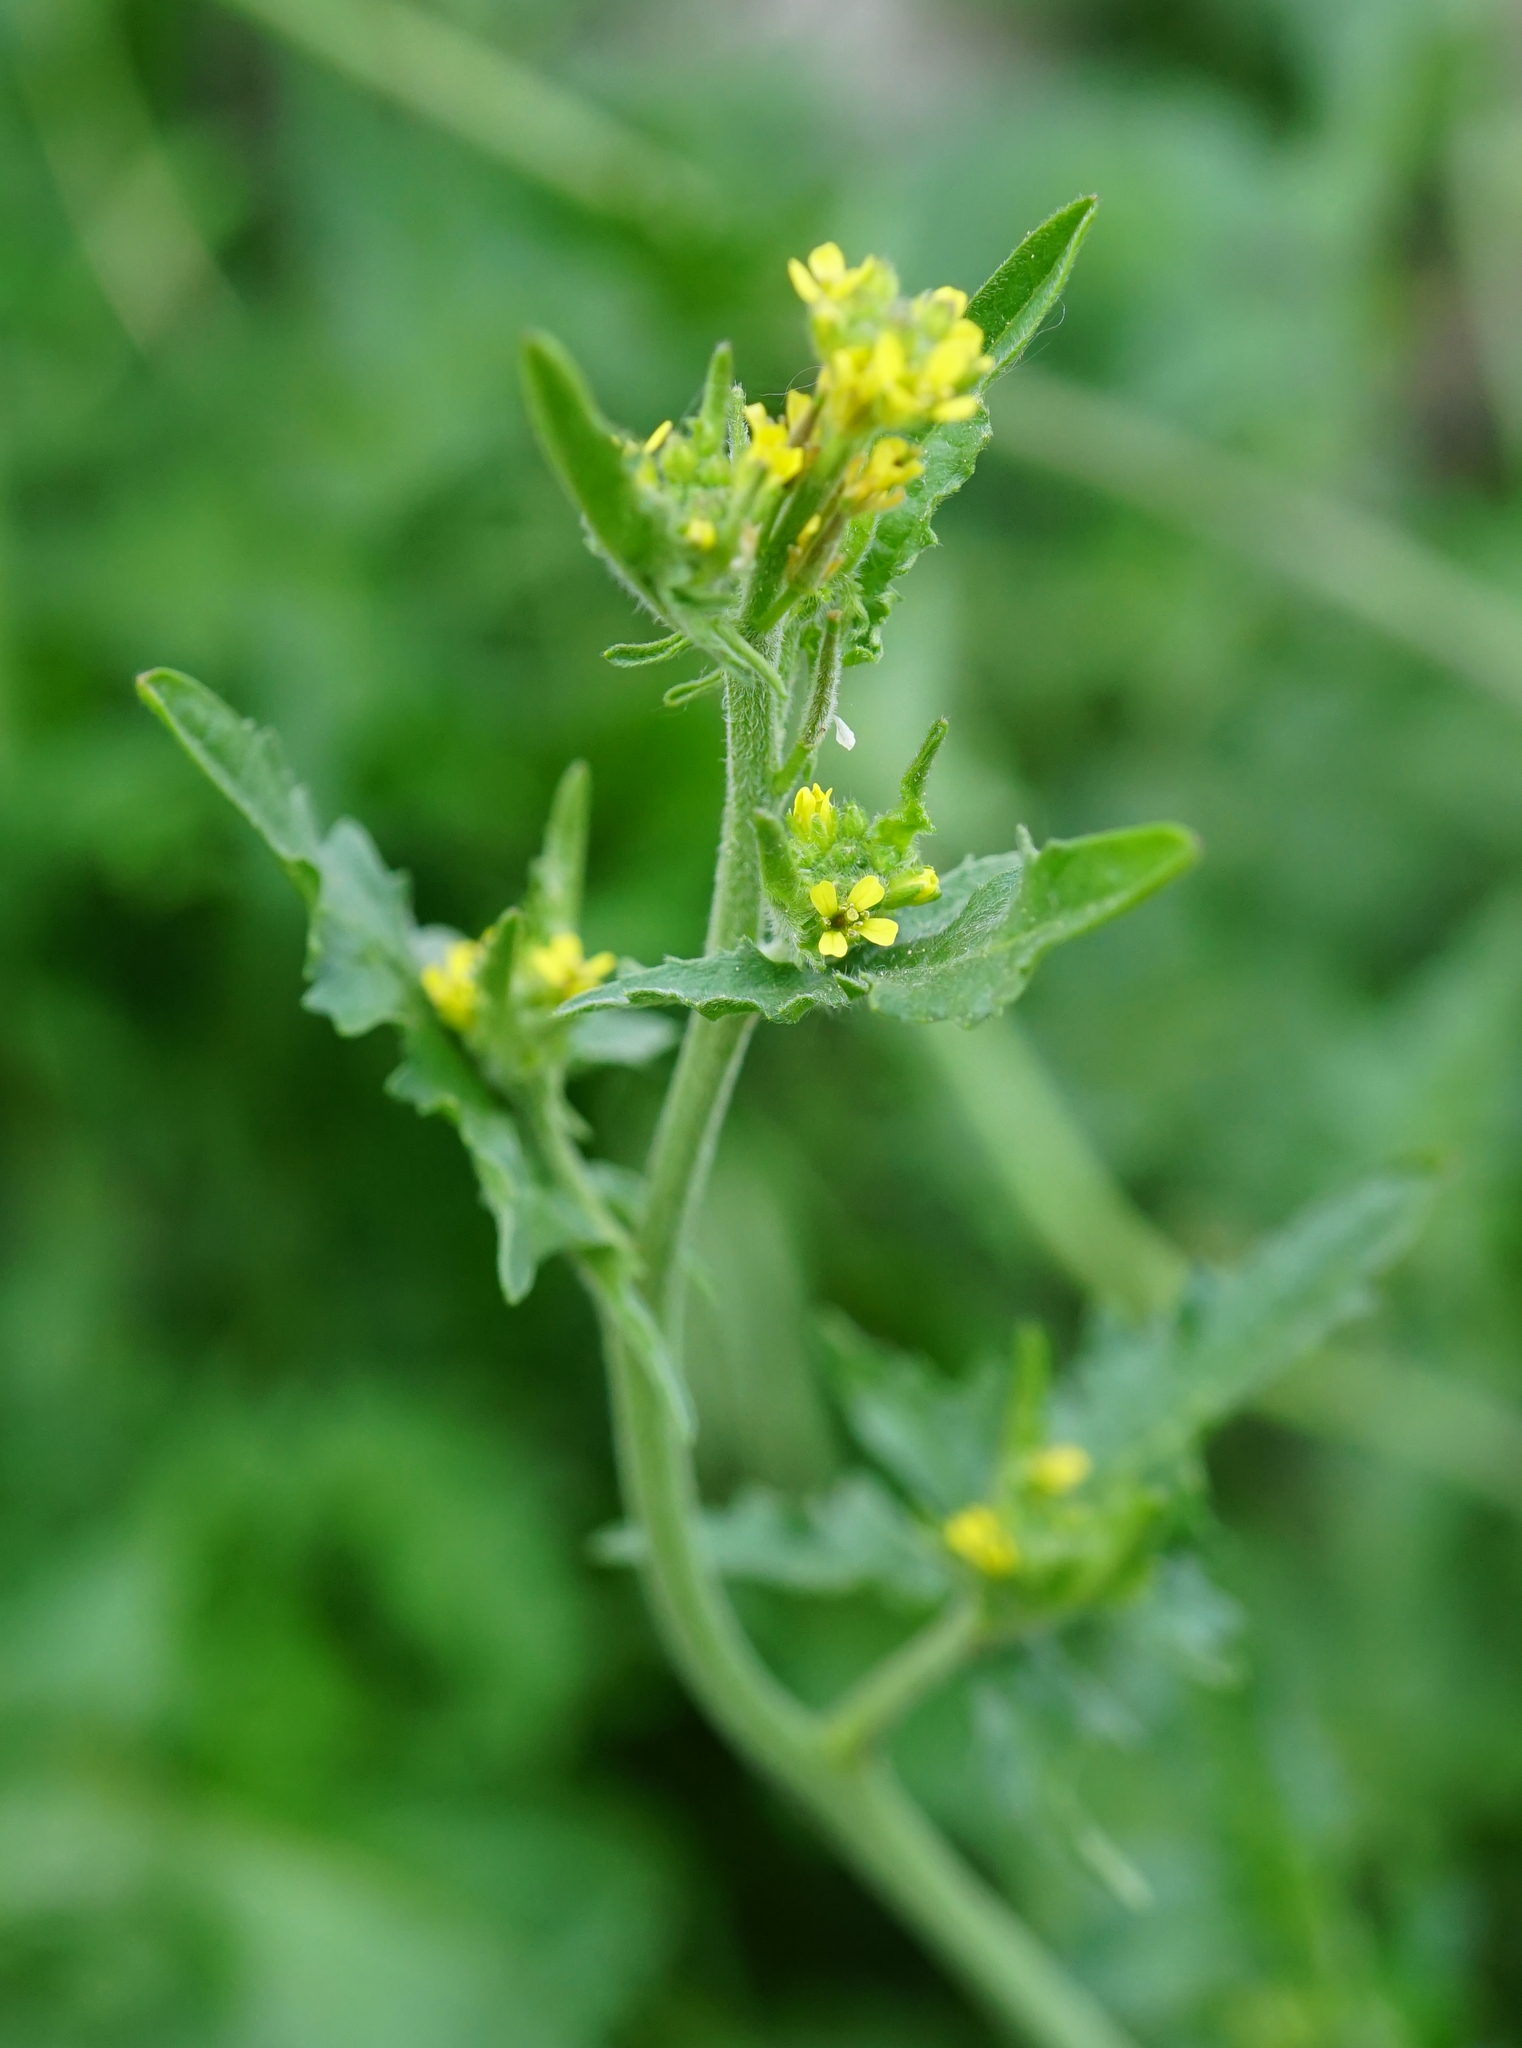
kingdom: Plantae
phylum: Tracheophyta
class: Magnoliopsida
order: Brassicales
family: Brassicaceae
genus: Sisymbrium
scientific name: Sisymbrium loeselii
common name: False london-rocket
